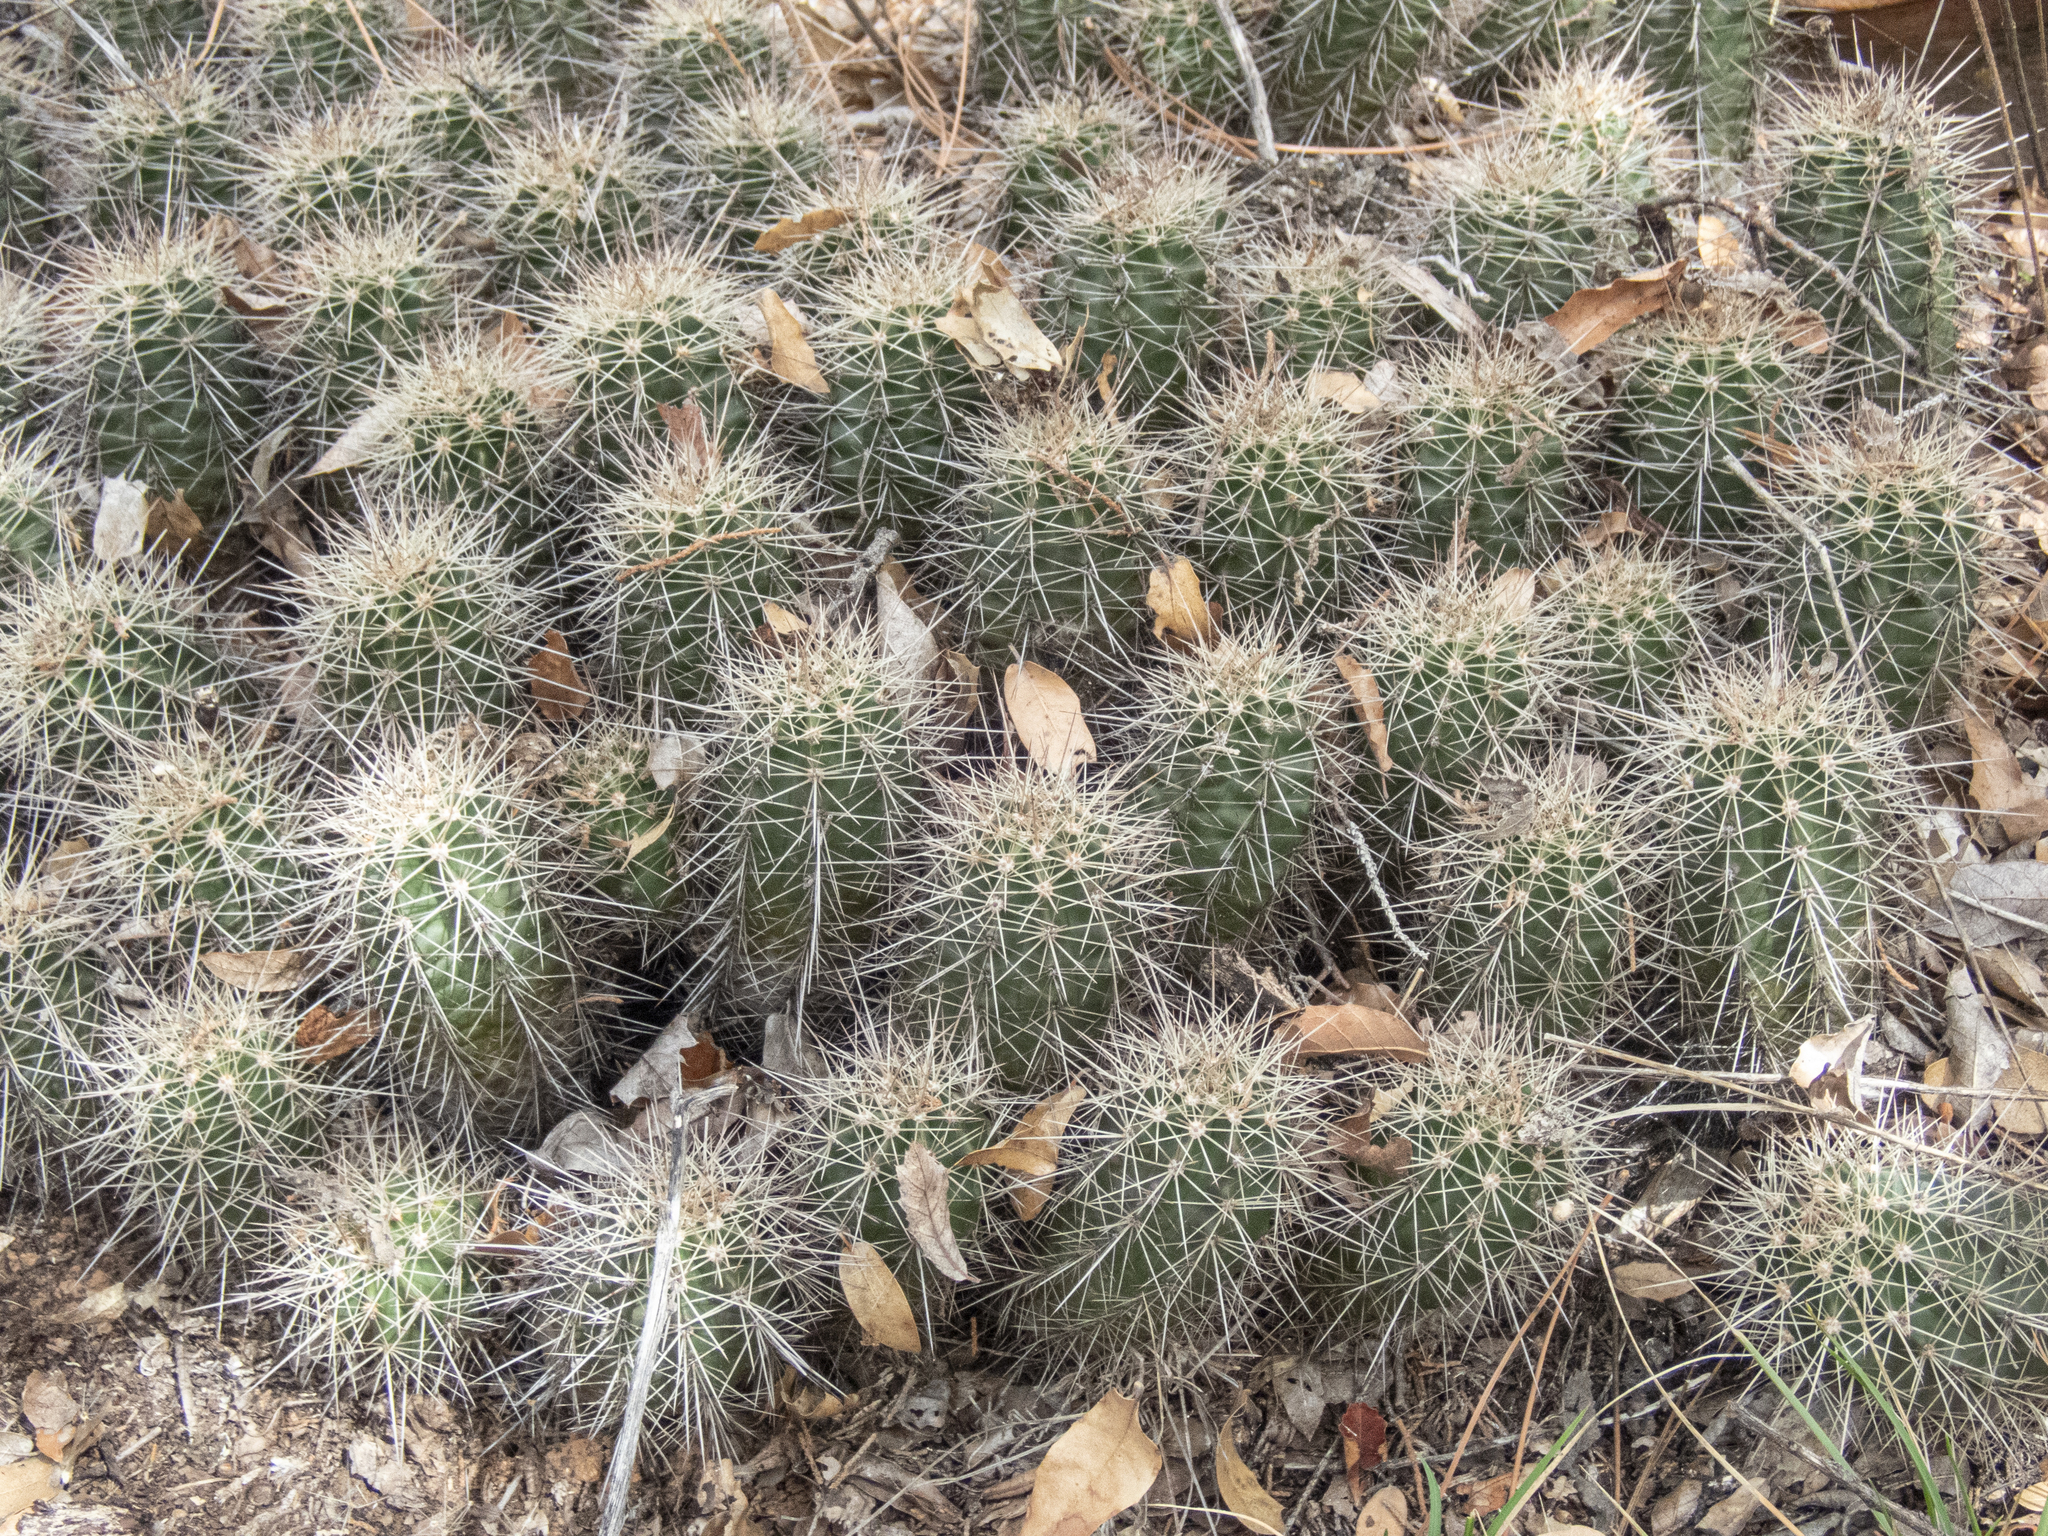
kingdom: Plantae
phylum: Tracheophyta
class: Magnoliopsida
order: Caryophyllales
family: Cactaceae
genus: Echinocereus
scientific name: Echinocereus bakeri
